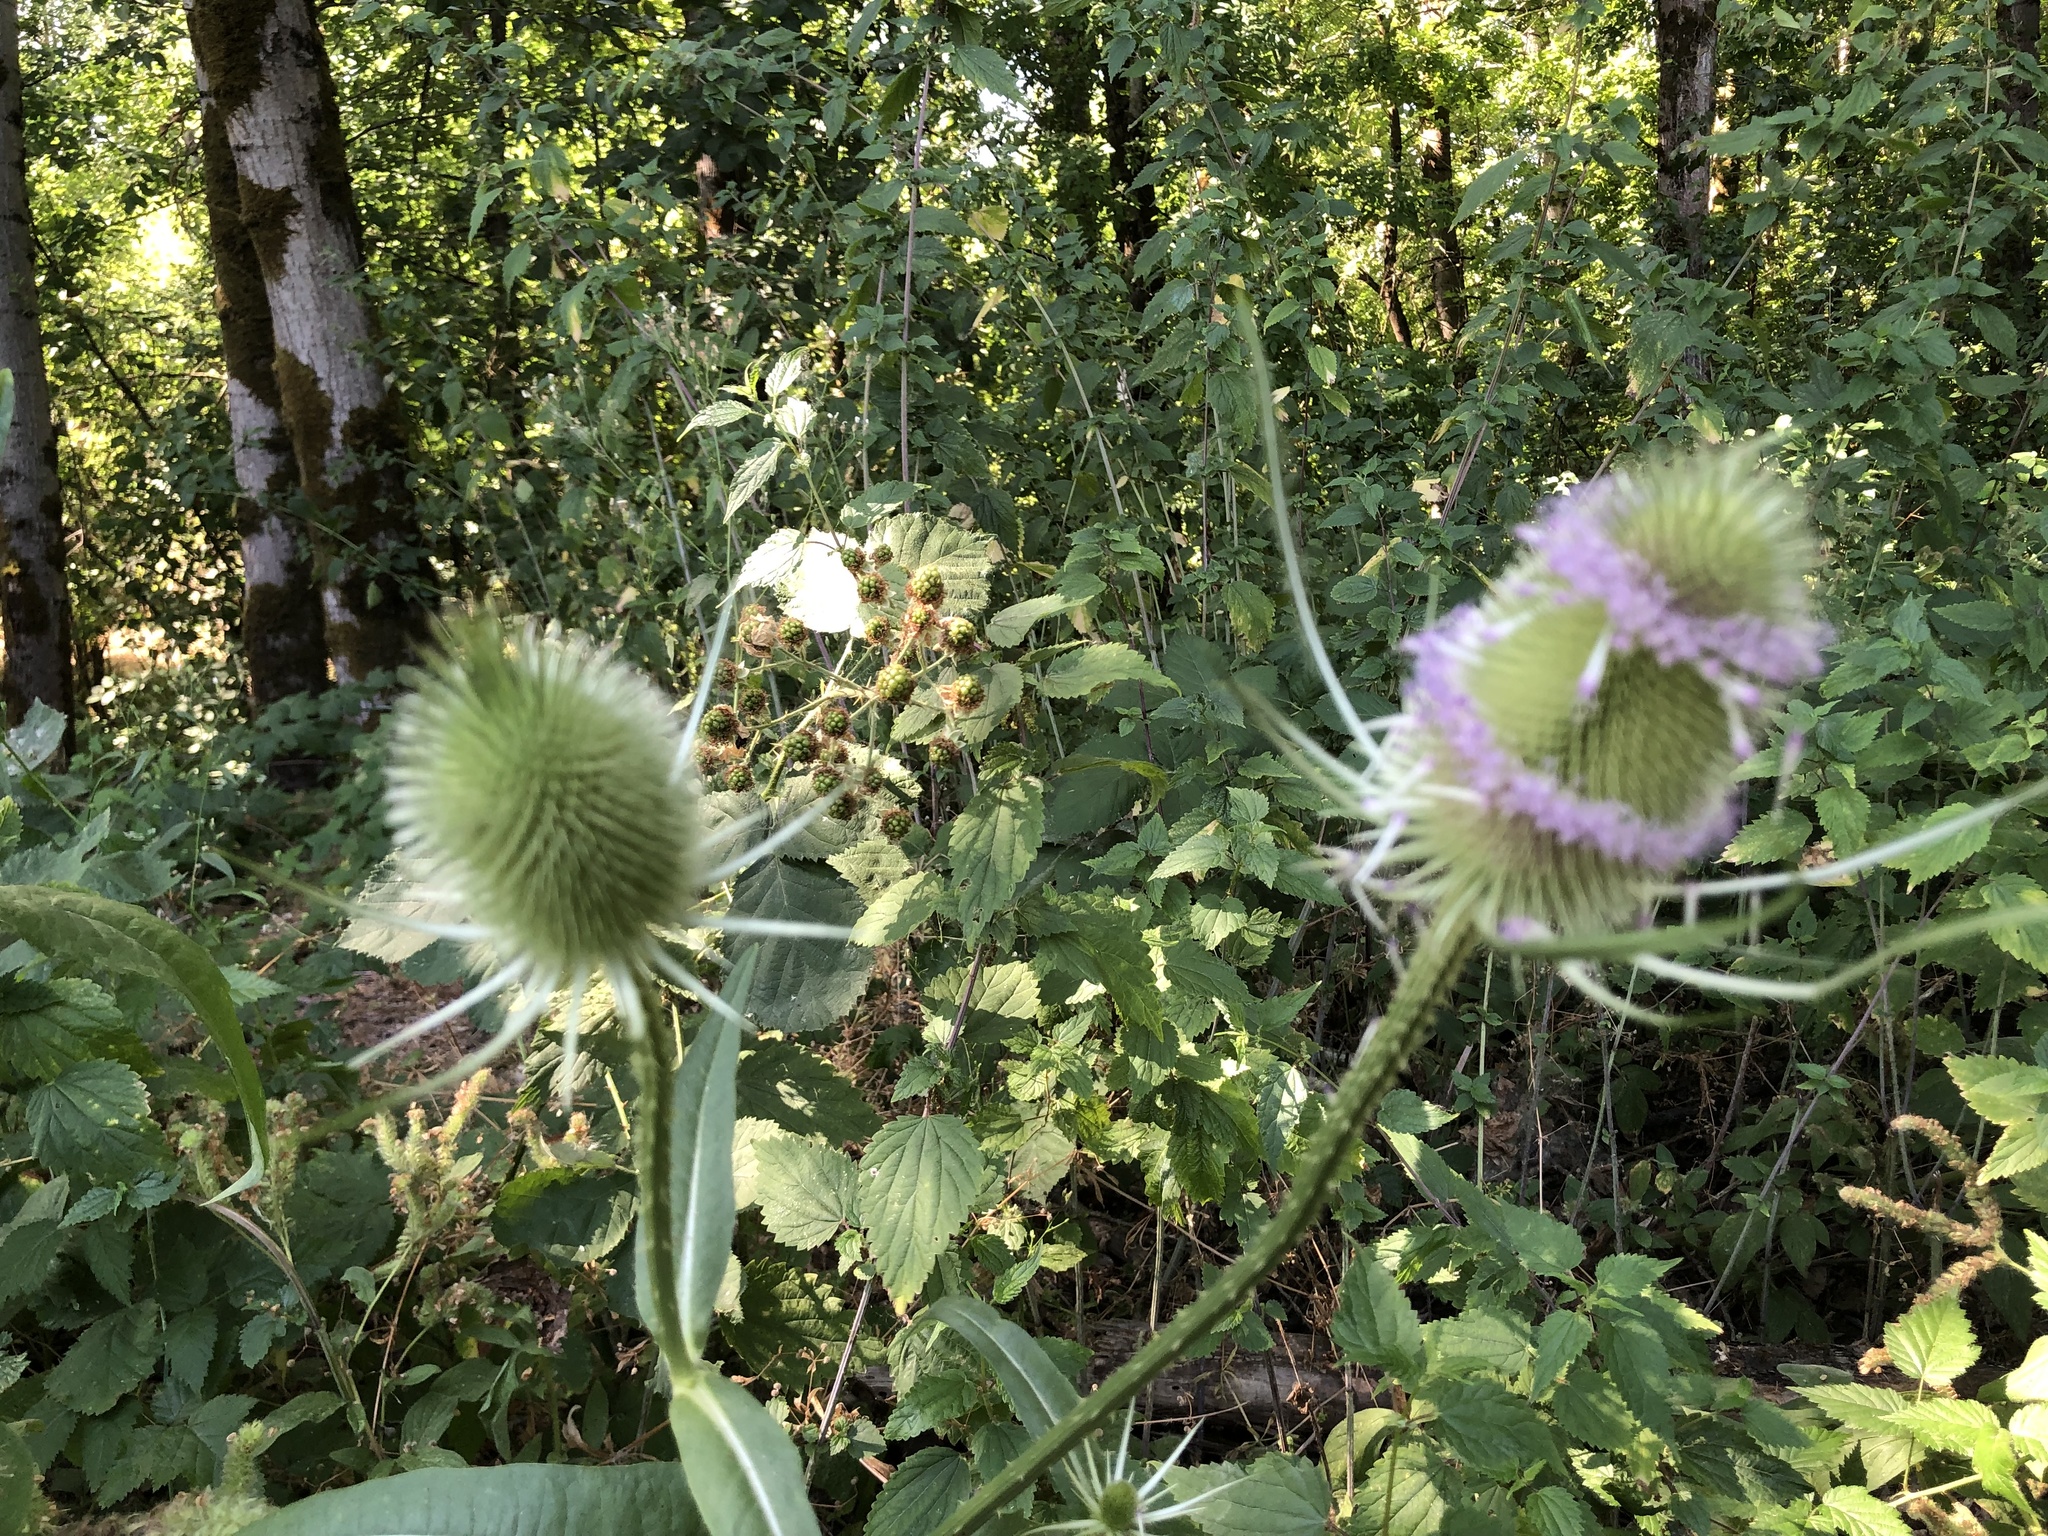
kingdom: Plantae
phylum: Tracheophyta
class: Magnoliopsida
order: Dipsacales
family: Caprifoliaceae
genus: Dipsacus
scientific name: Dipsacus fullonum
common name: Teasel
